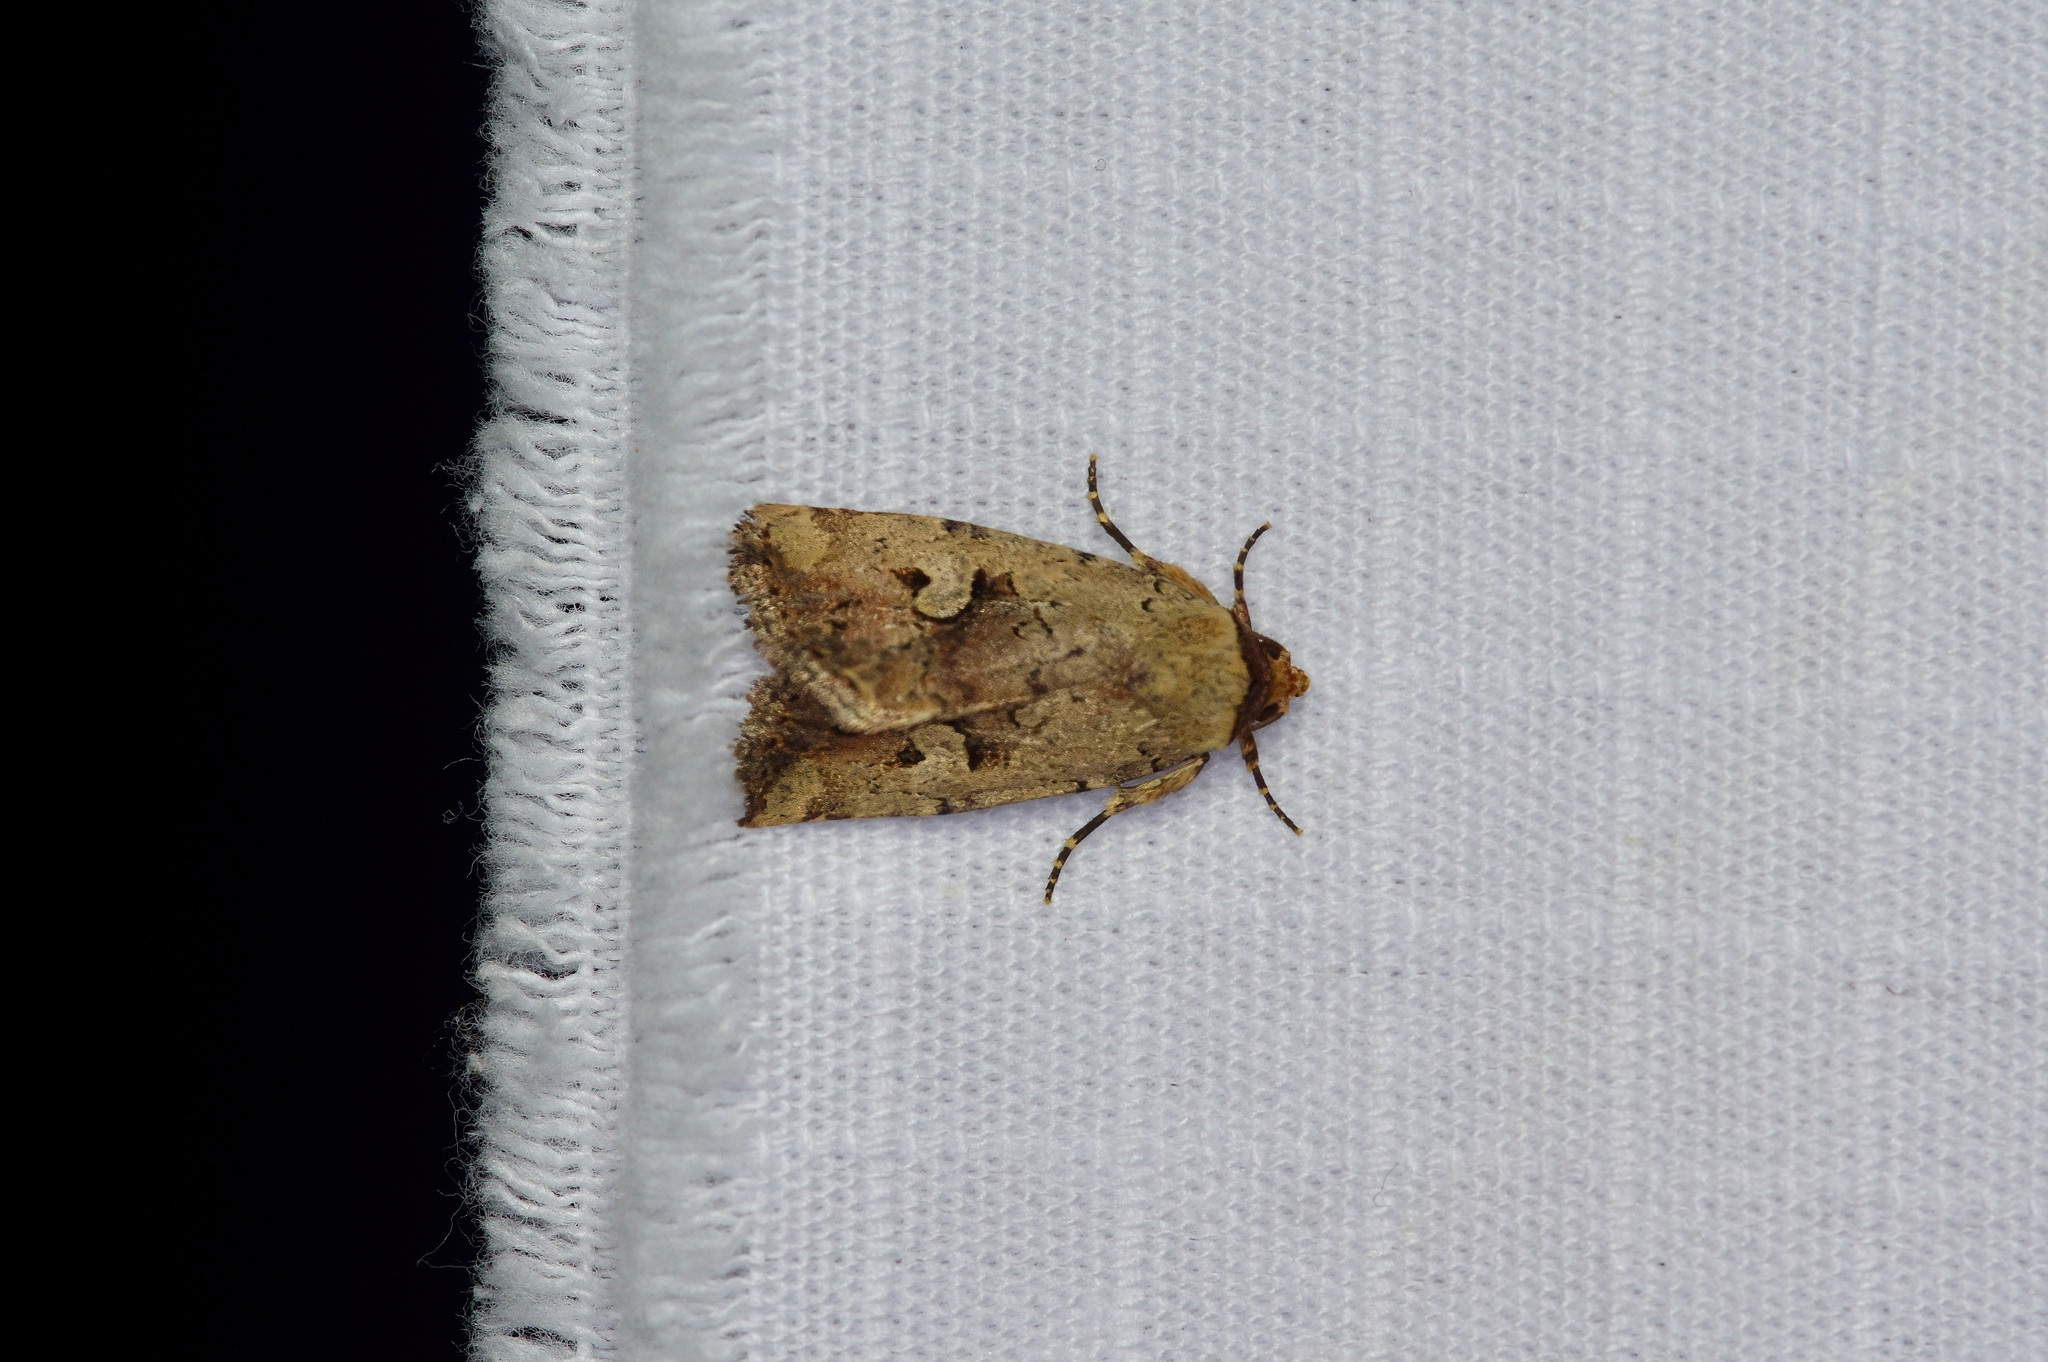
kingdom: Animalia
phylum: Arthropoda
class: Insecta
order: Lepidoptera
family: Noctuidae
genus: Elaphria
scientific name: Elaphria festivoides
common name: Festive midget
